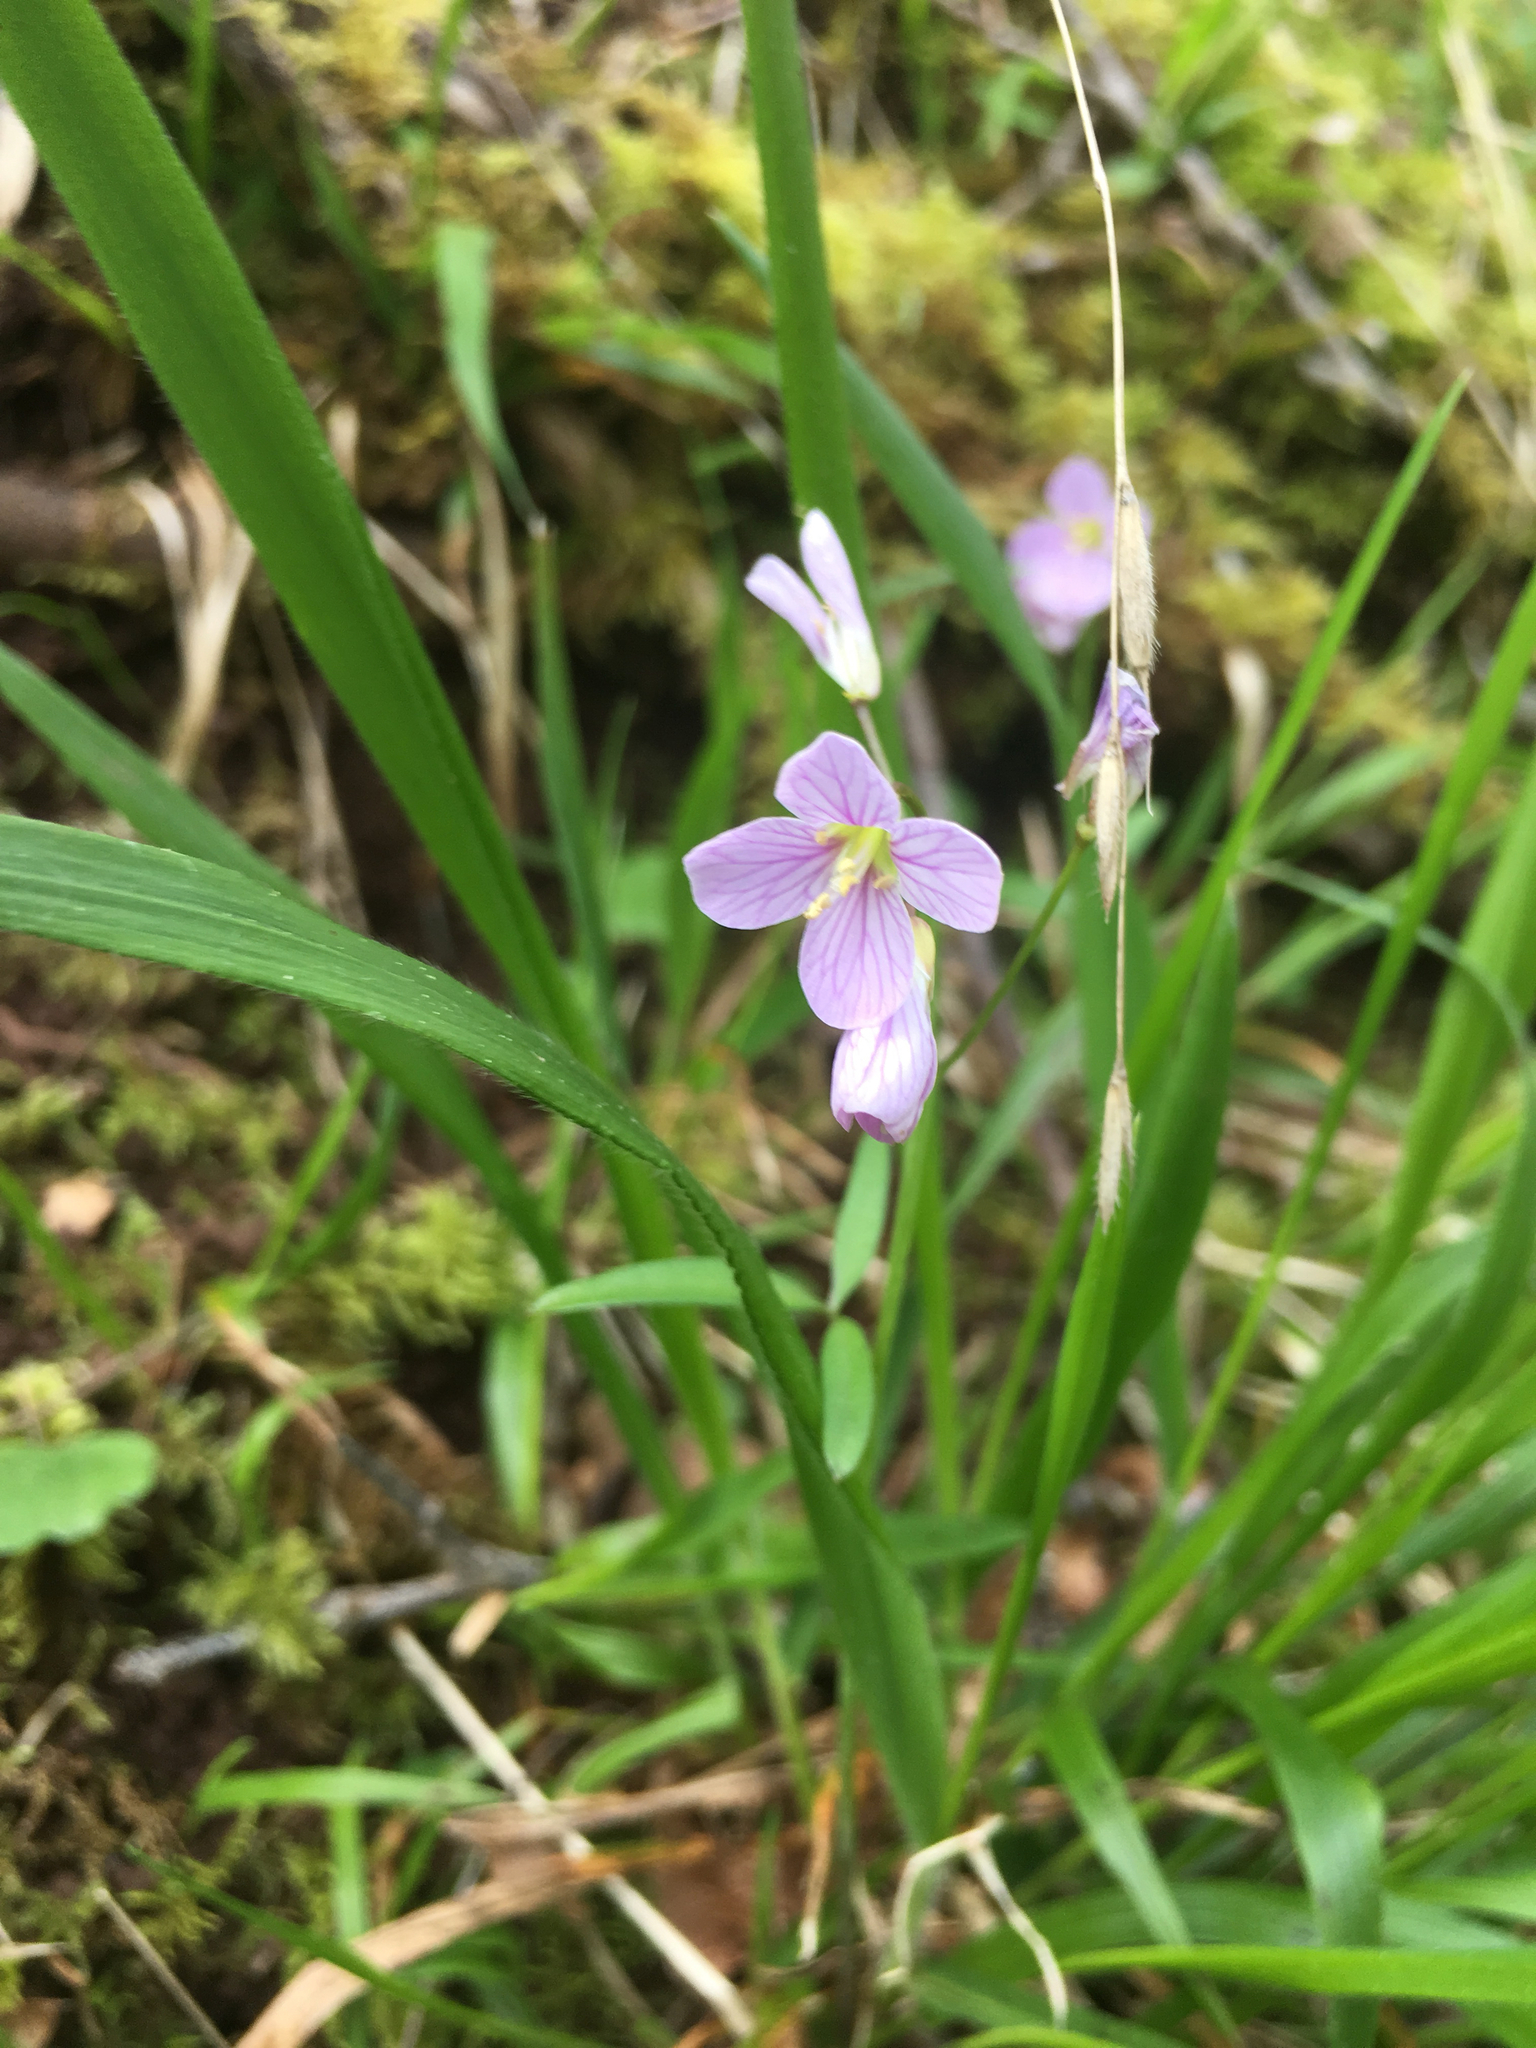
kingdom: Plantae
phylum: Tracheophyta
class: Magnoliopsida
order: Brassicales
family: Brassicaceae
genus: Cardamine
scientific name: Cardamine nuttallii
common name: Nuttall's toothwort
